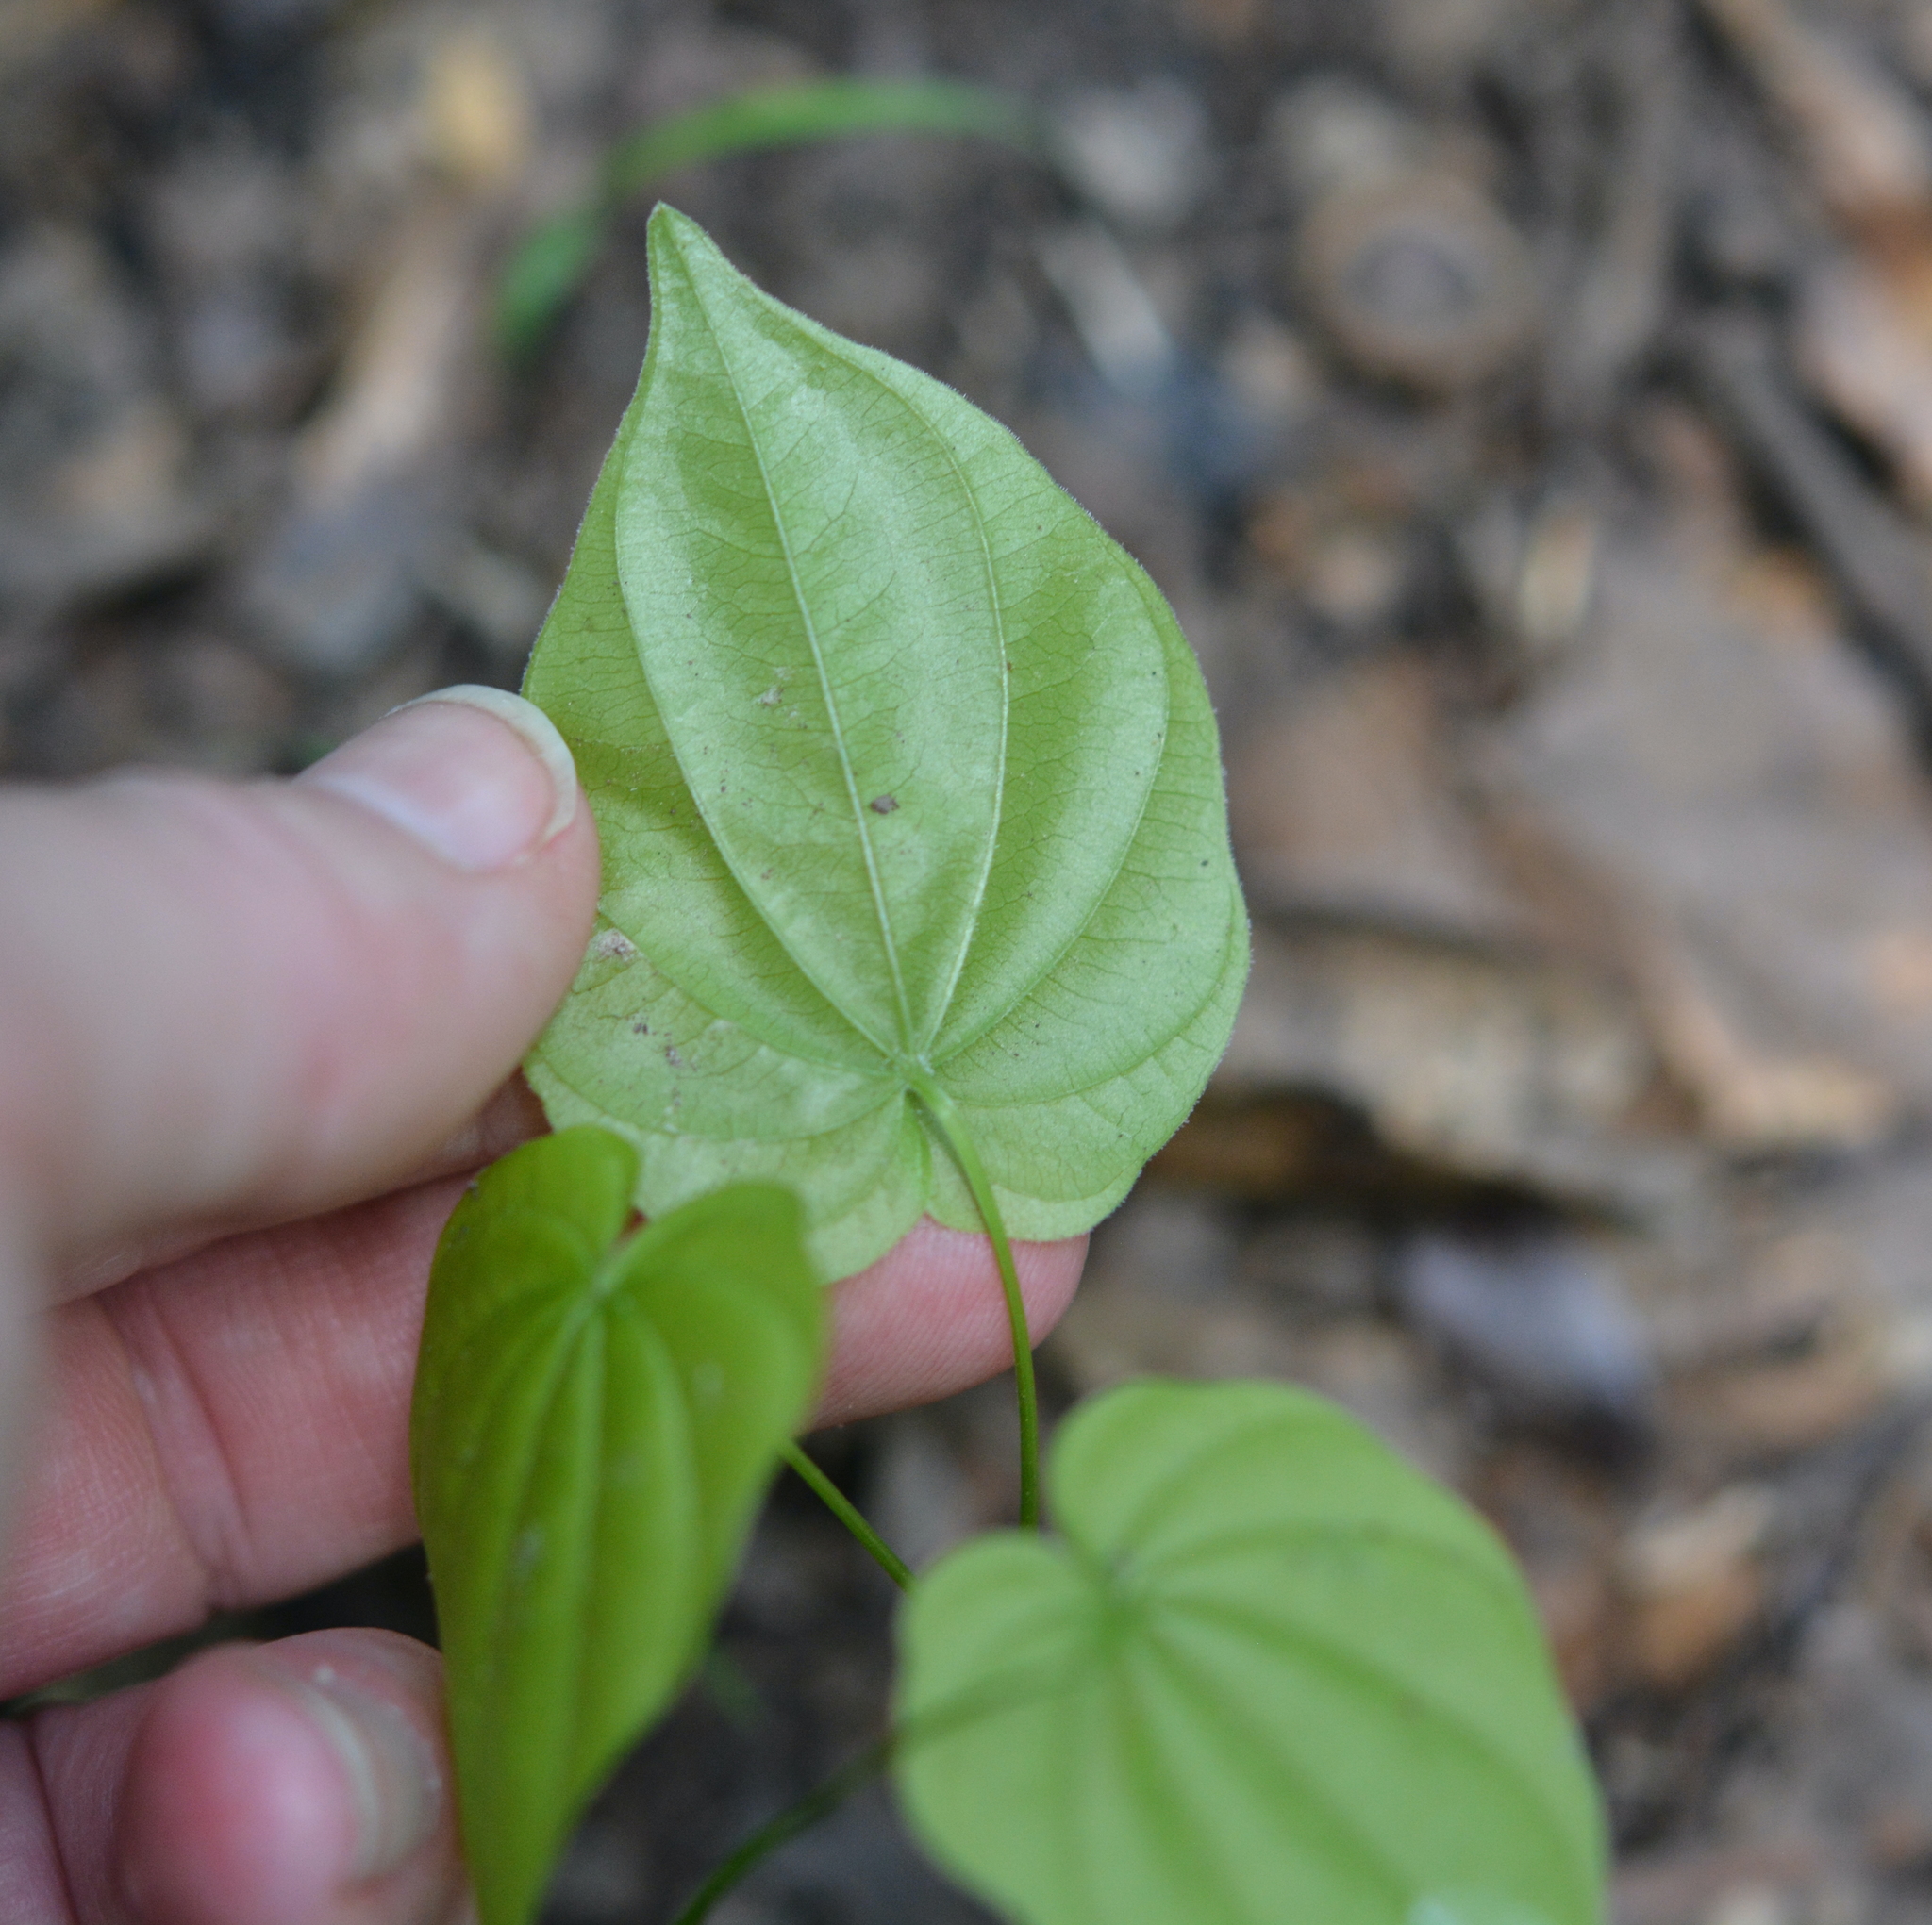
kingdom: Plantae
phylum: Tracheophyta
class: Liliopsida
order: Dioscoreales
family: Dioscoreaceae
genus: Dioscorea
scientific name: Dioscorea villosa
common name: Wild yam
